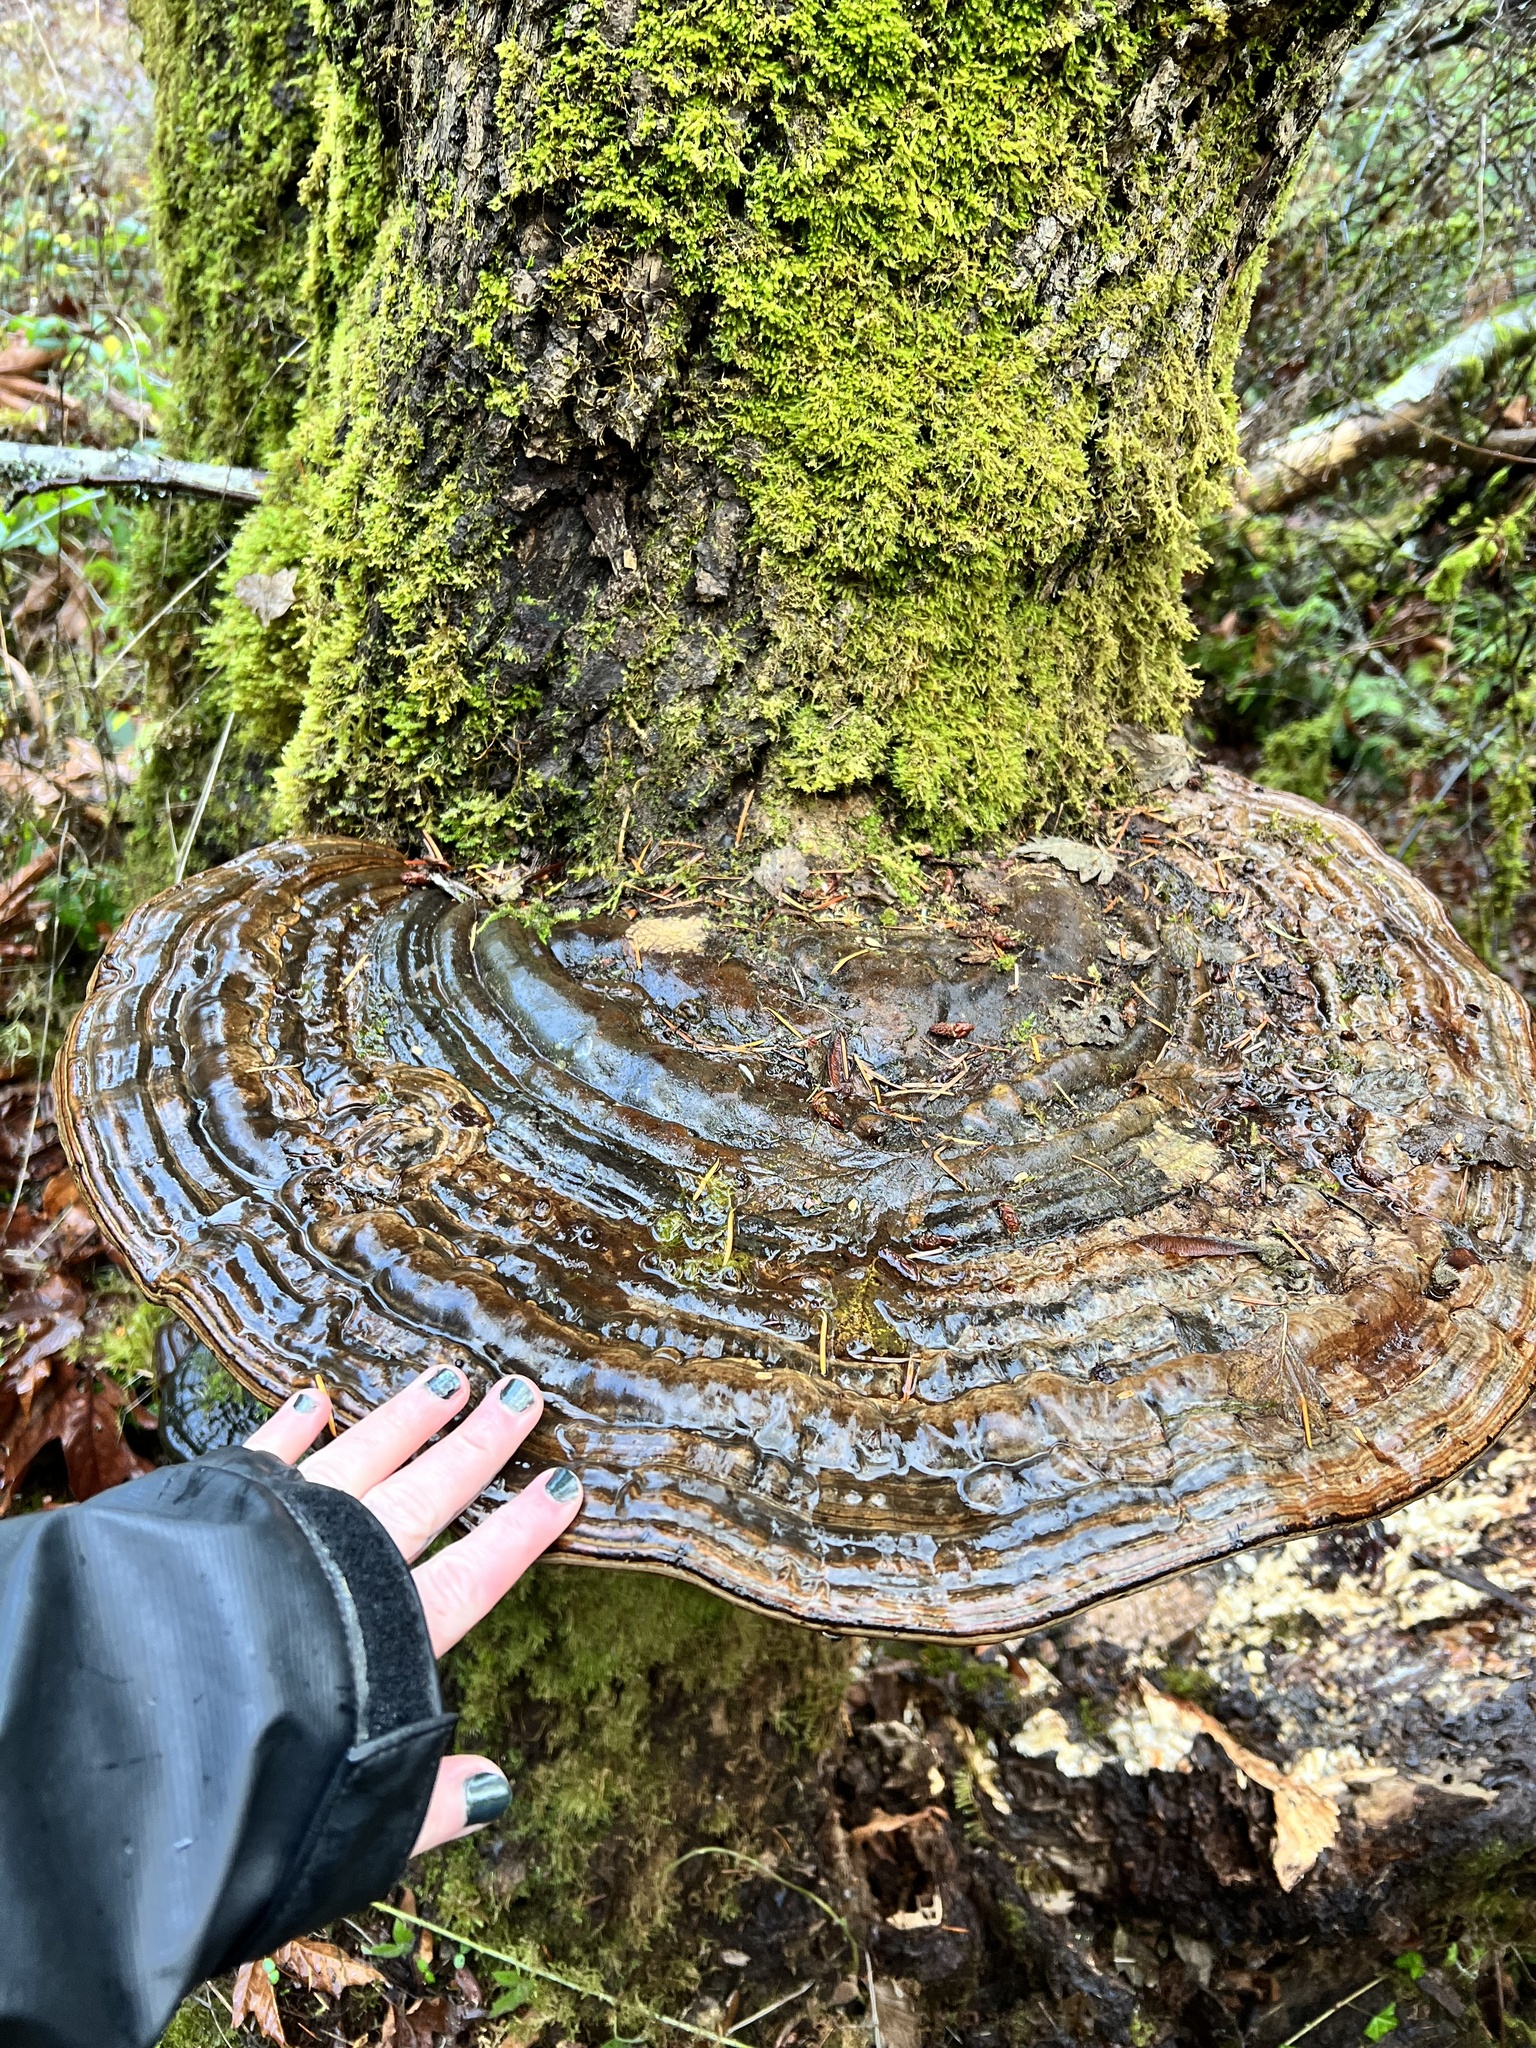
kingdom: Fungi
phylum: Basidiomycota
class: Agaricomycetes
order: Polyporales
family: Polyporaceae
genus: Ganoderma
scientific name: Ganoderma applanatum
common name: Artist's bracket
